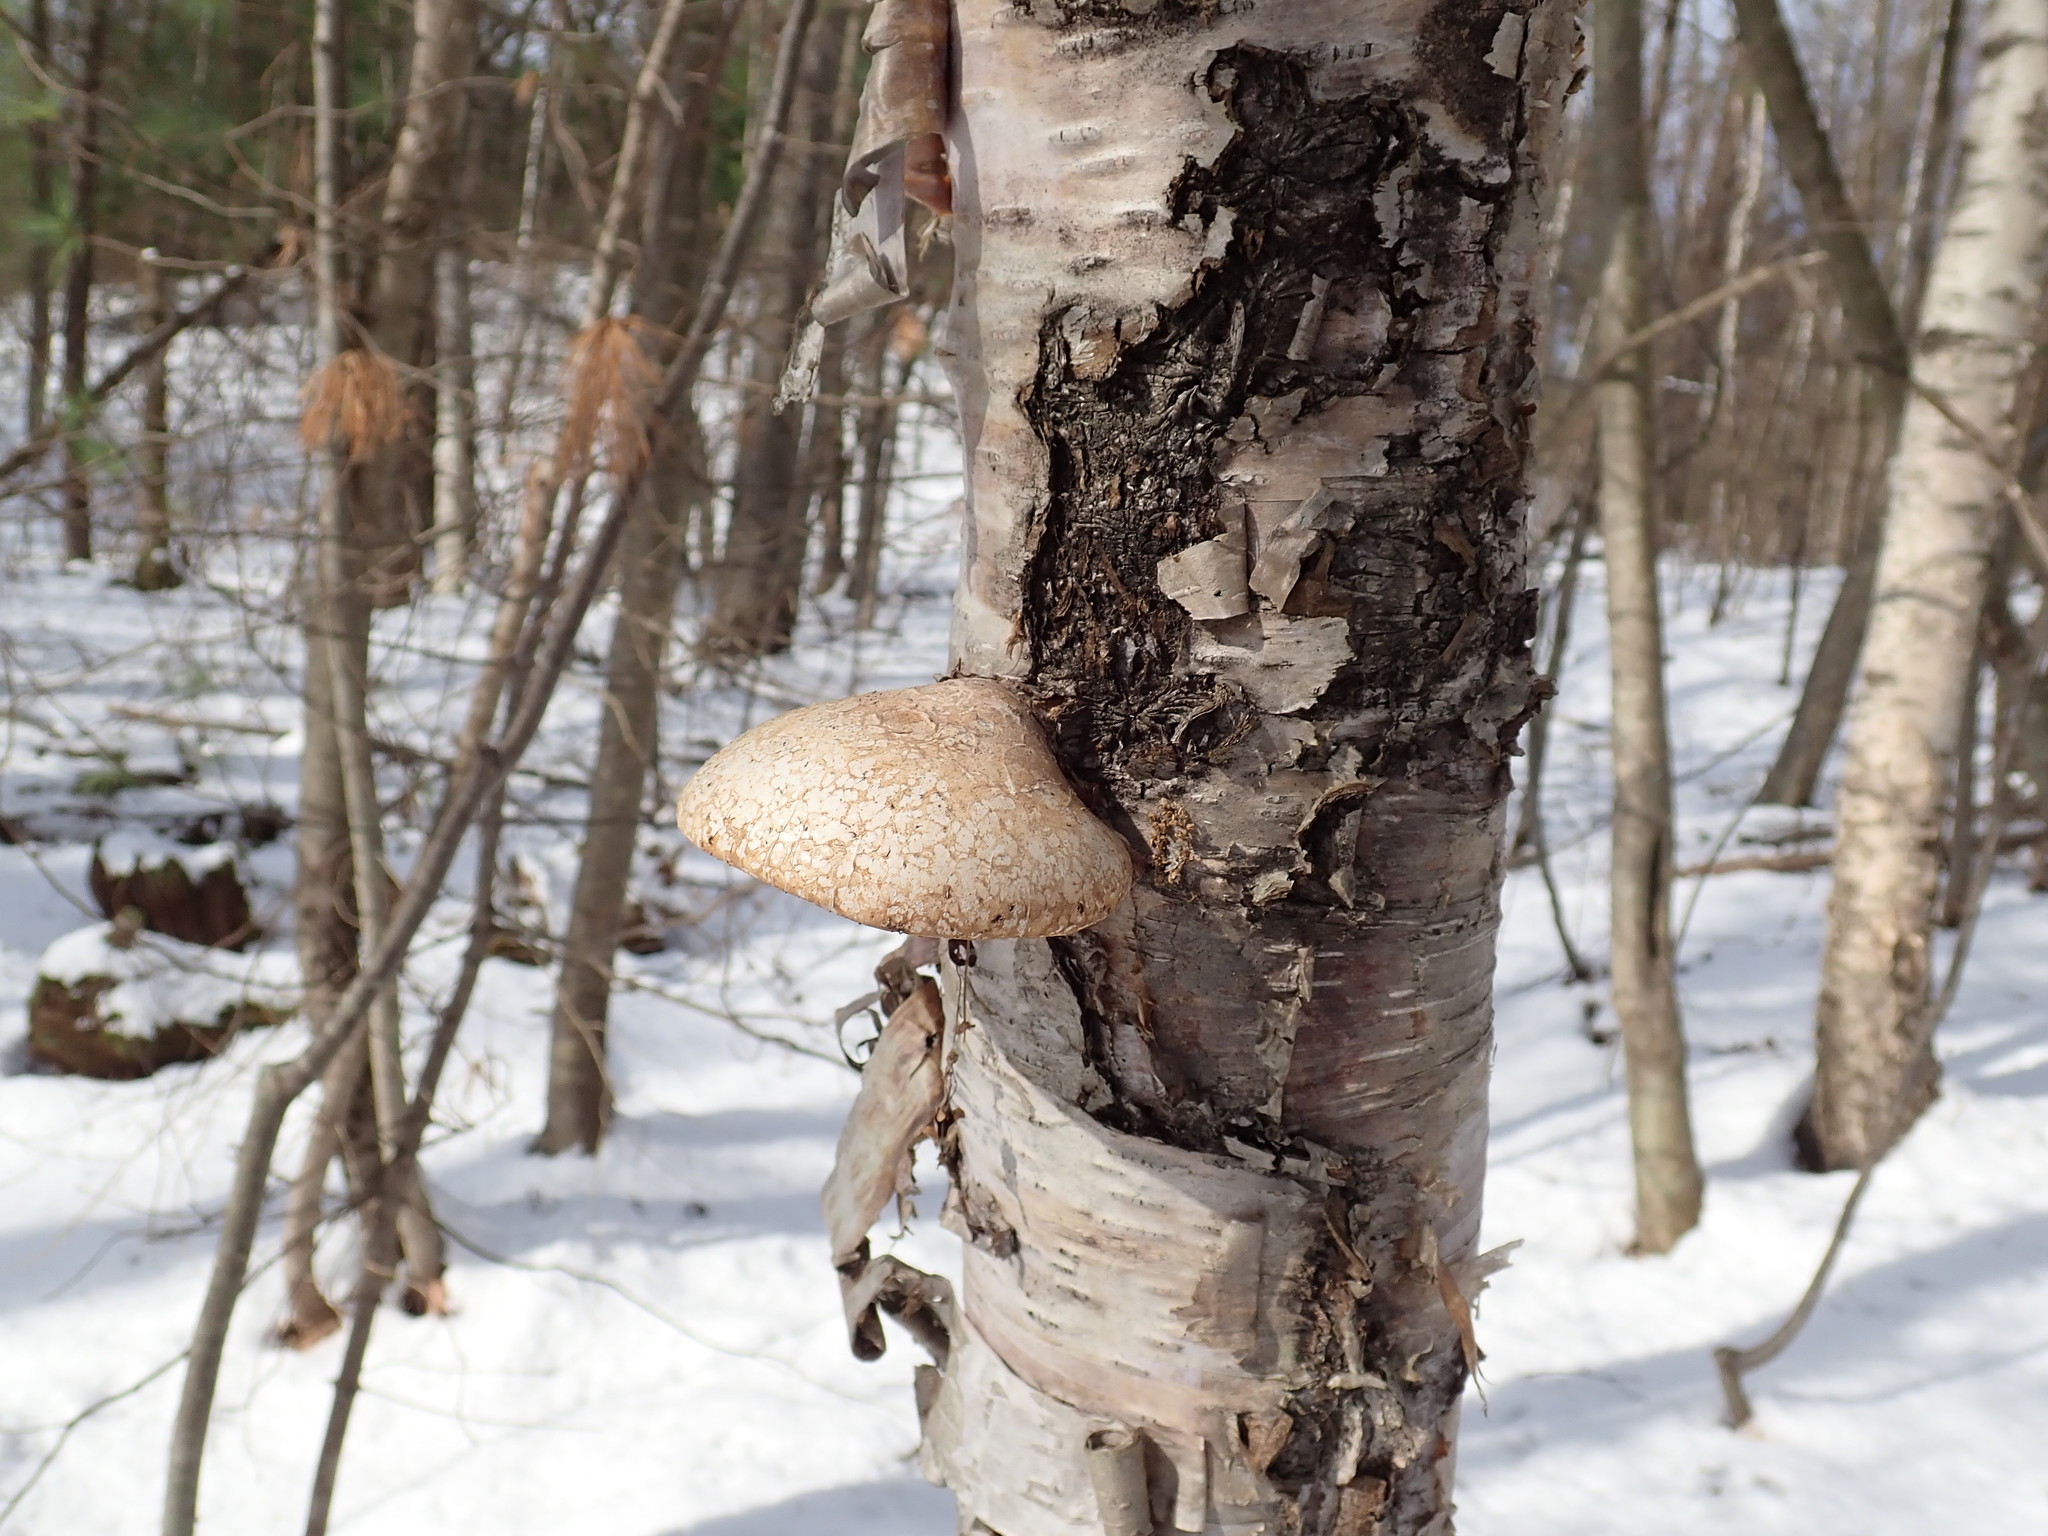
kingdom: Fungi
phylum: Basidiomycota
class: Agaricomycetes
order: Polyporales
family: Fomitopsidaceae
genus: Fomitopsis
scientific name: Fomitopsis betulina
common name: Birch polypore
